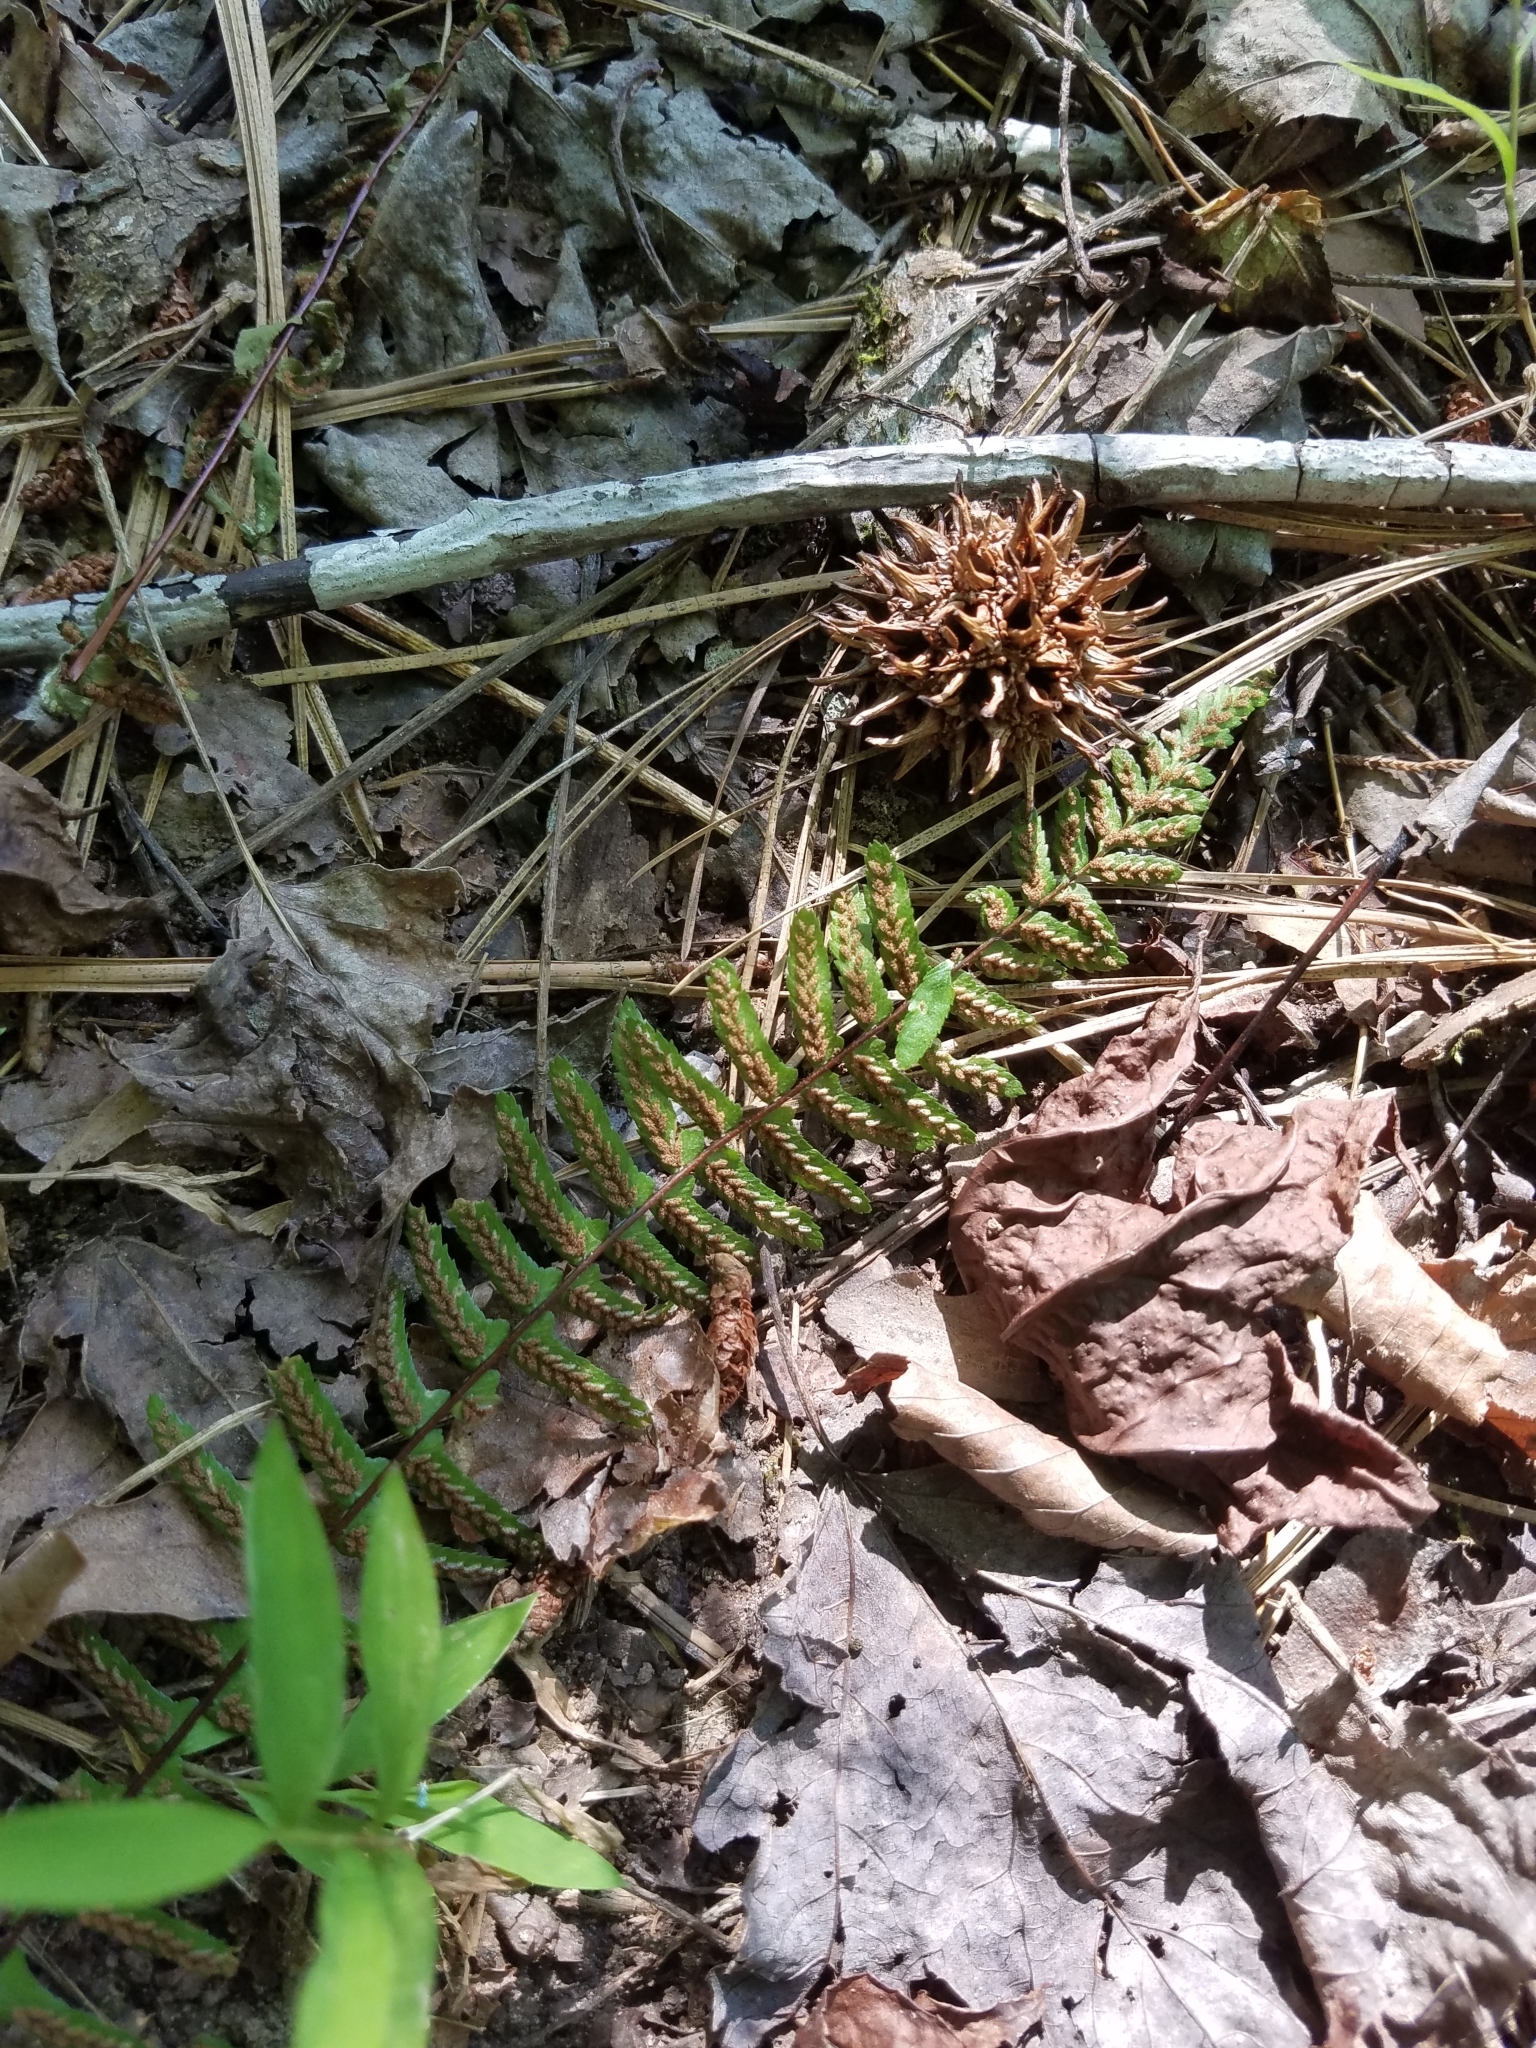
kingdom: Plantae
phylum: Tracheophyta
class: Polypodiopsida
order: Polypodiales
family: Aspleniaceae
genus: Asplenium
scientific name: Asplenium platyneuron
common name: Ebony spleenwort
